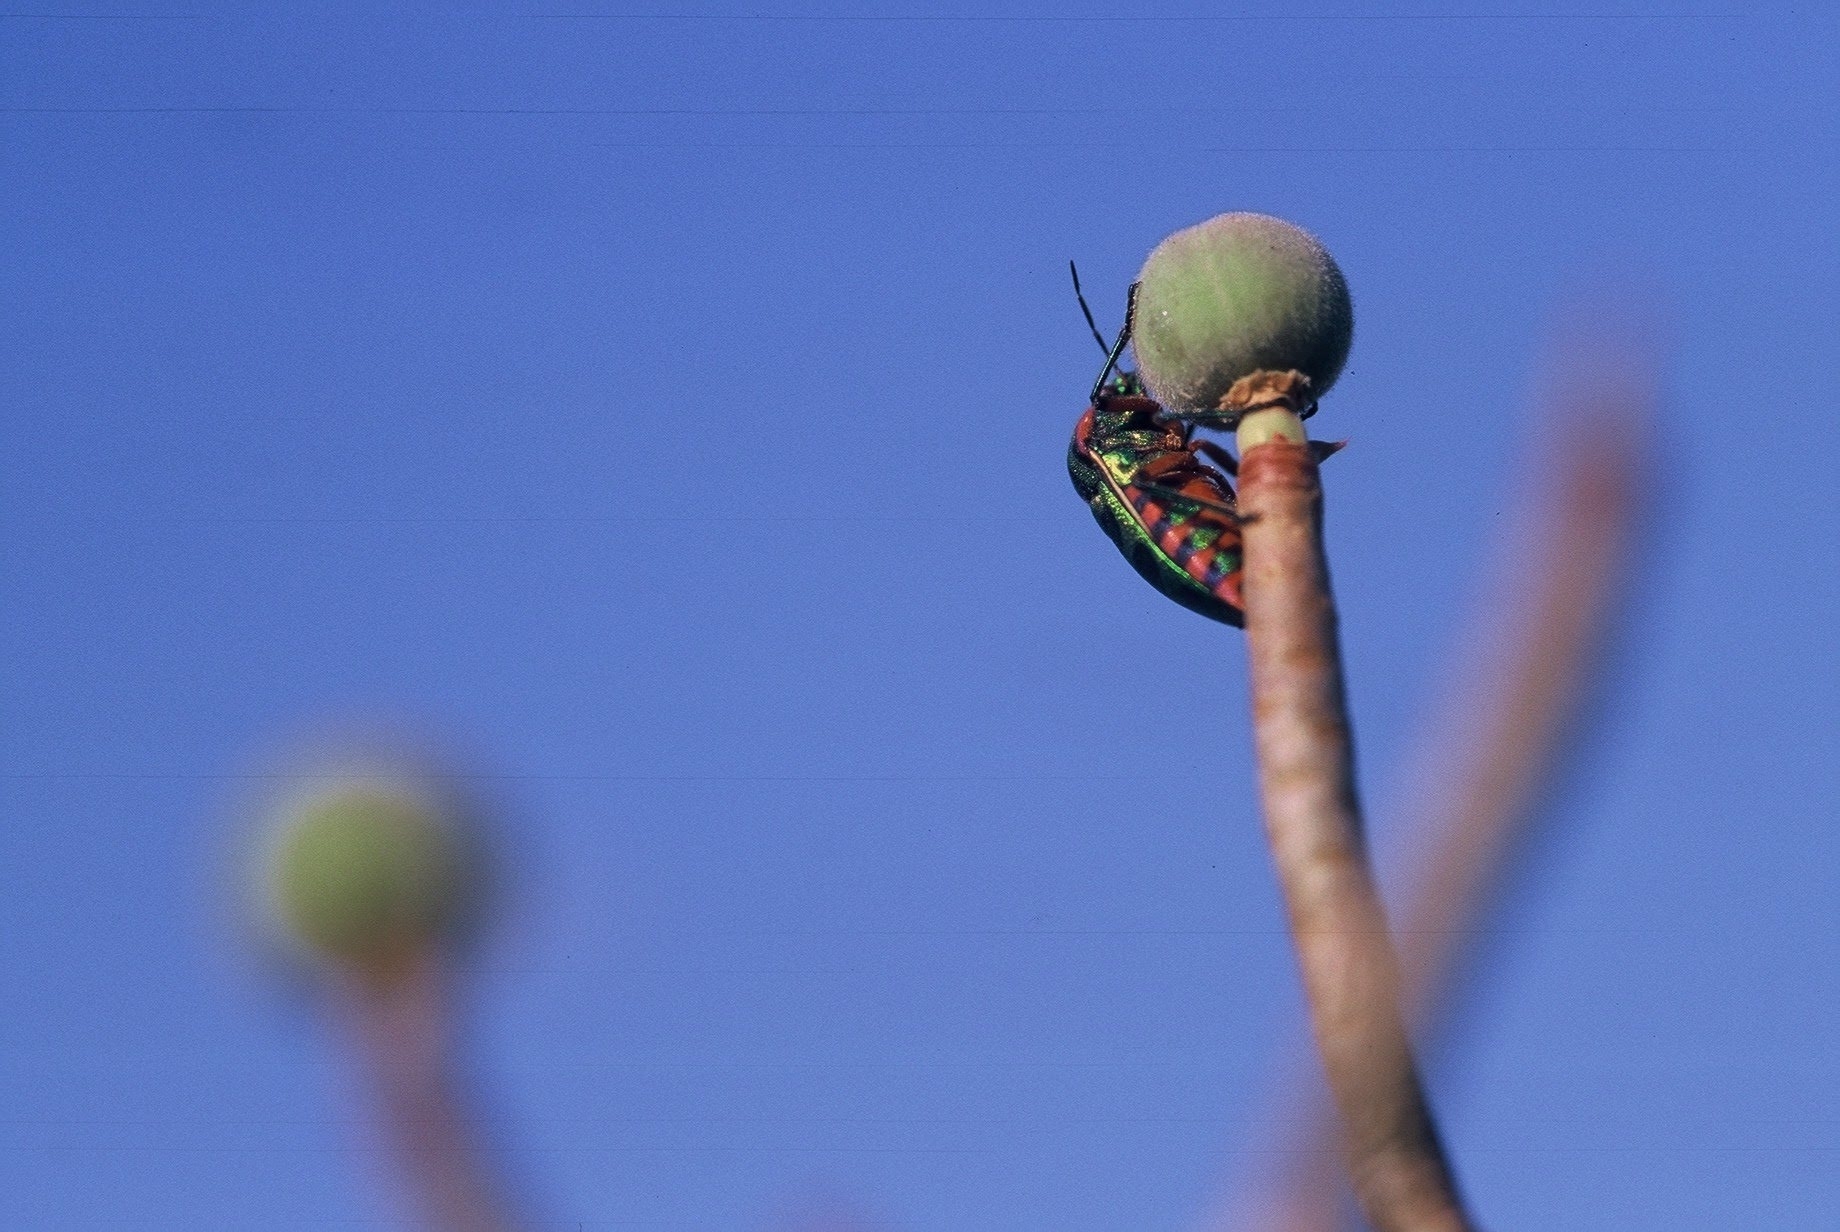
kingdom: Animalia
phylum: Arthropoda
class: Insecta
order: Hemiptera
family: Scutelleridae
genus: Calidea
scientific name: Calidea
